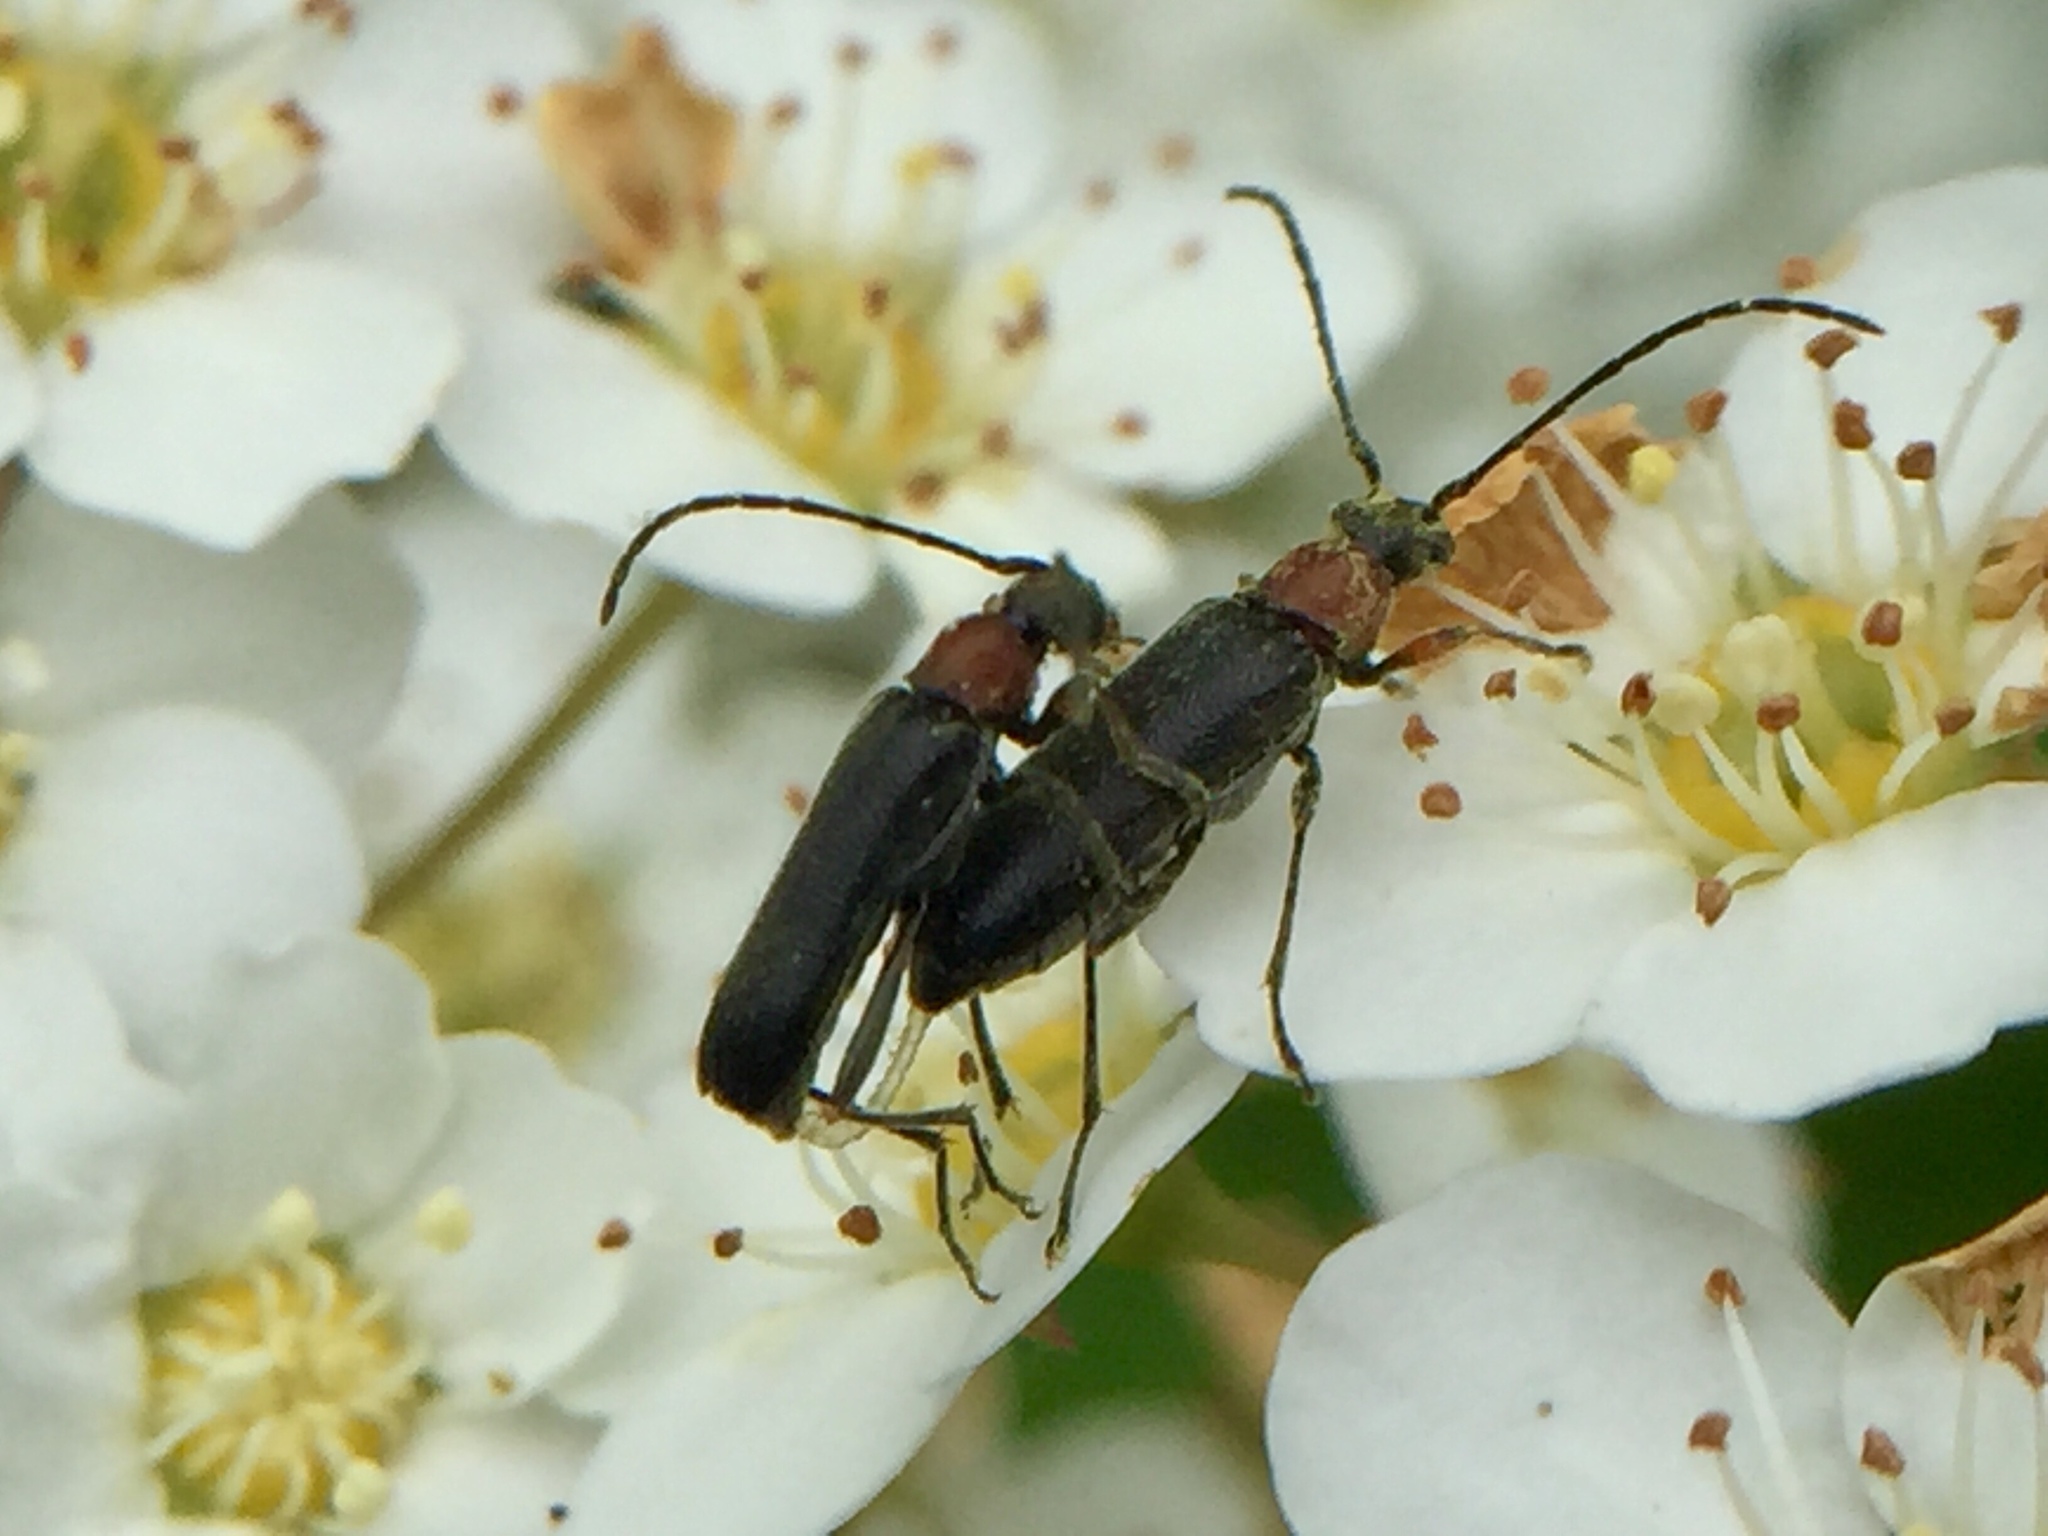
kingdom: Animalia
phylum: Arthropoda
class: Insecta
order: Coleoptera
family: Cerambycidae
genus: Grammoptera
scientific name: Grammoptera haematites
